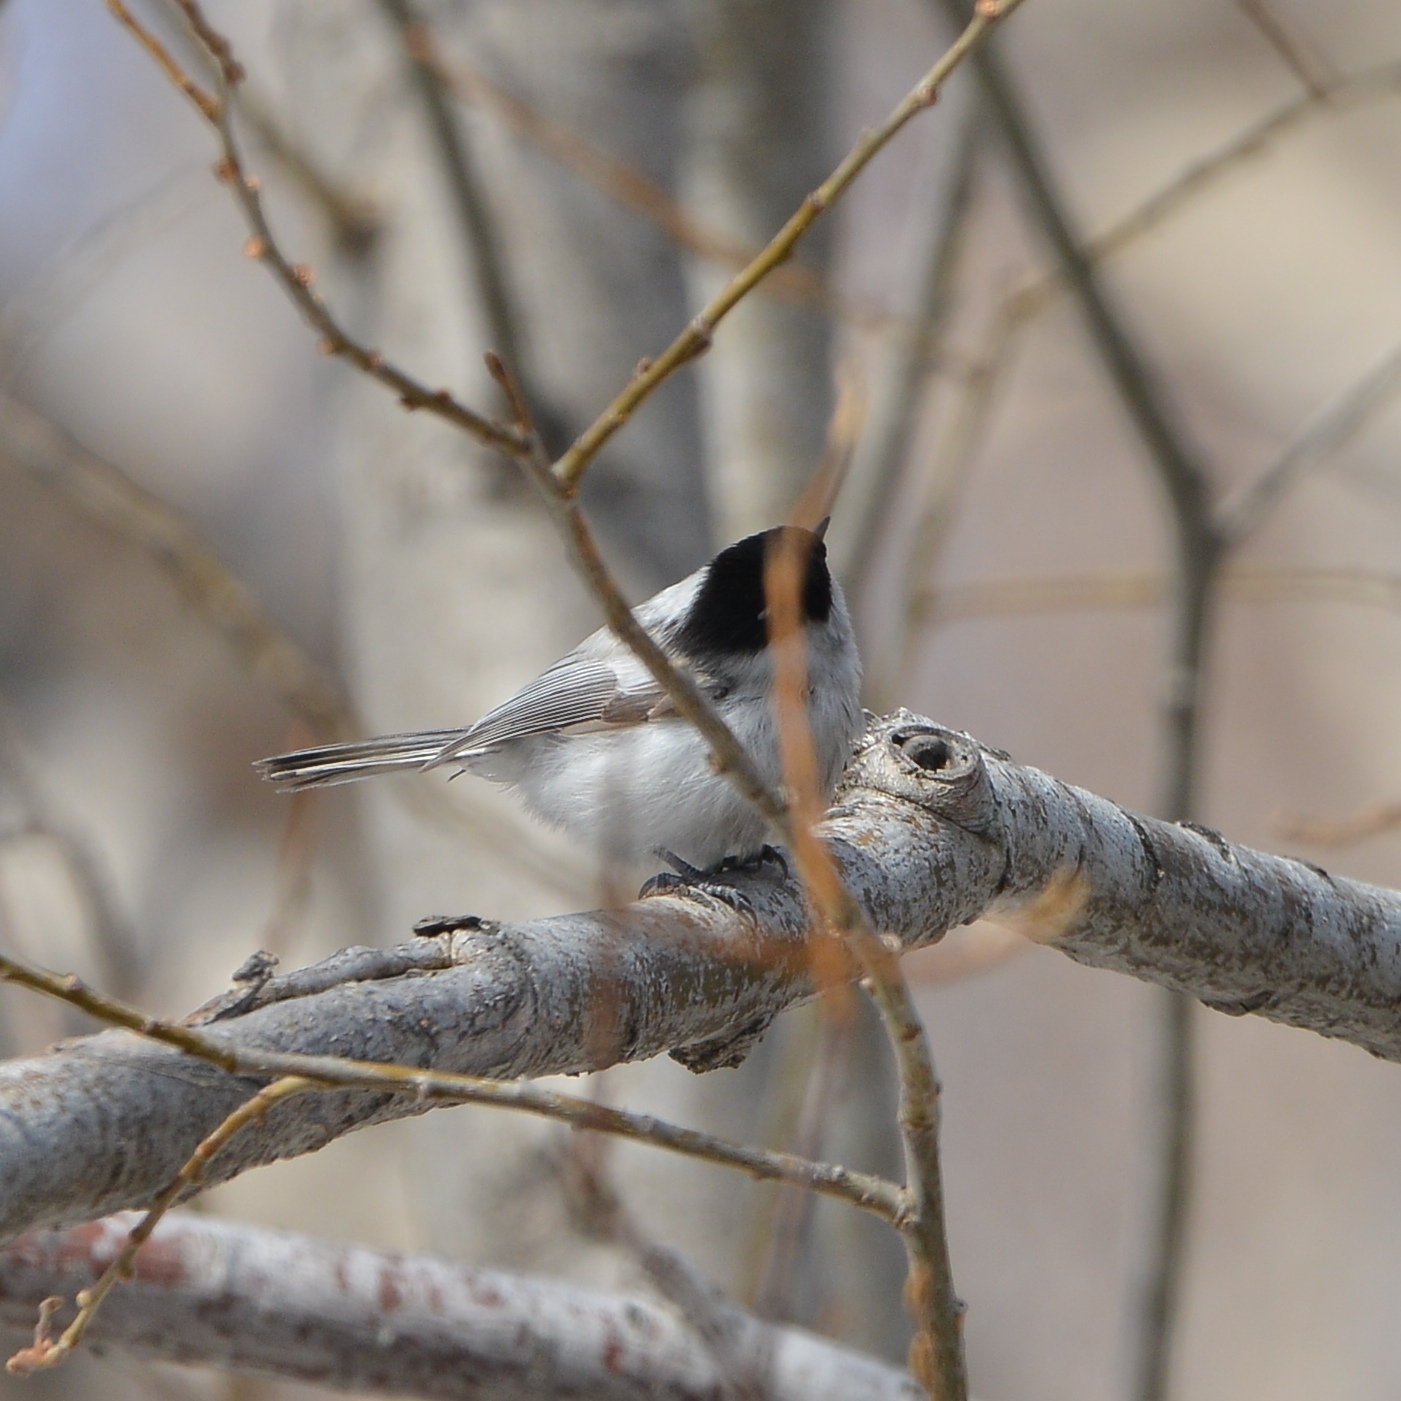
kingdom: Animalia
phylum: Chordata
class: Aves
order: Passeriformes
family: Paridae
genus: Poecile
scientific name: Poecile montanus
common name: Willow tit
